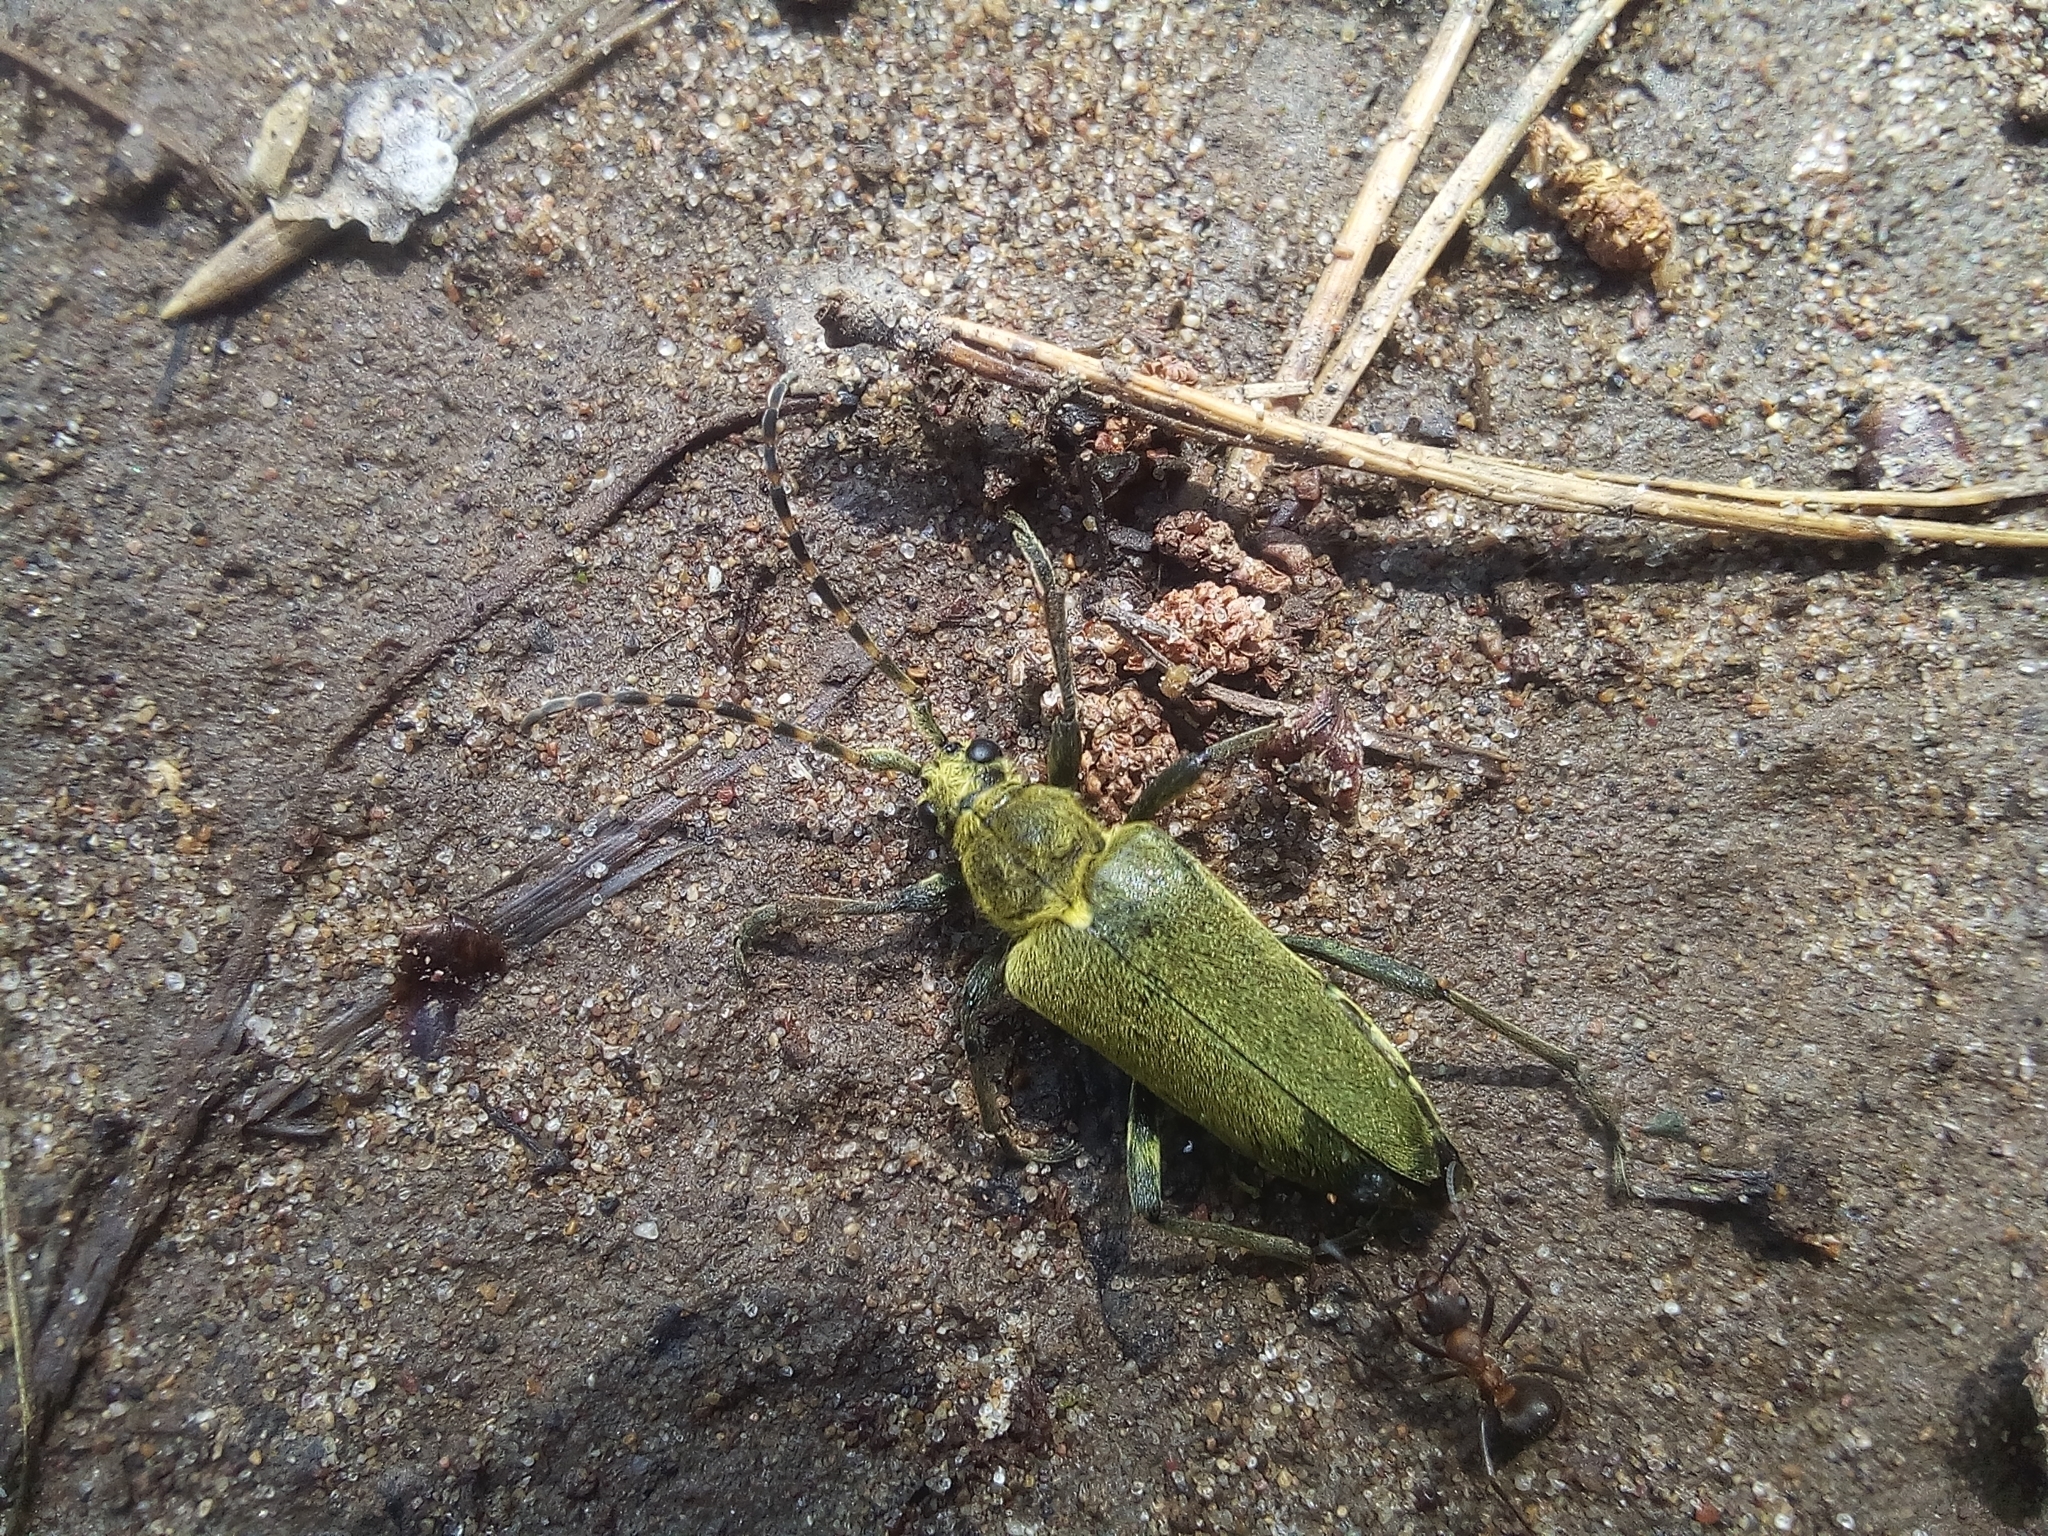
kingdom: Animalia
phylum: Arthropoda
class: Insecta
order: Coleoptera
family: Cerambycidae
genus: Lepturobosca
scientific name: Lepturobosca virens
